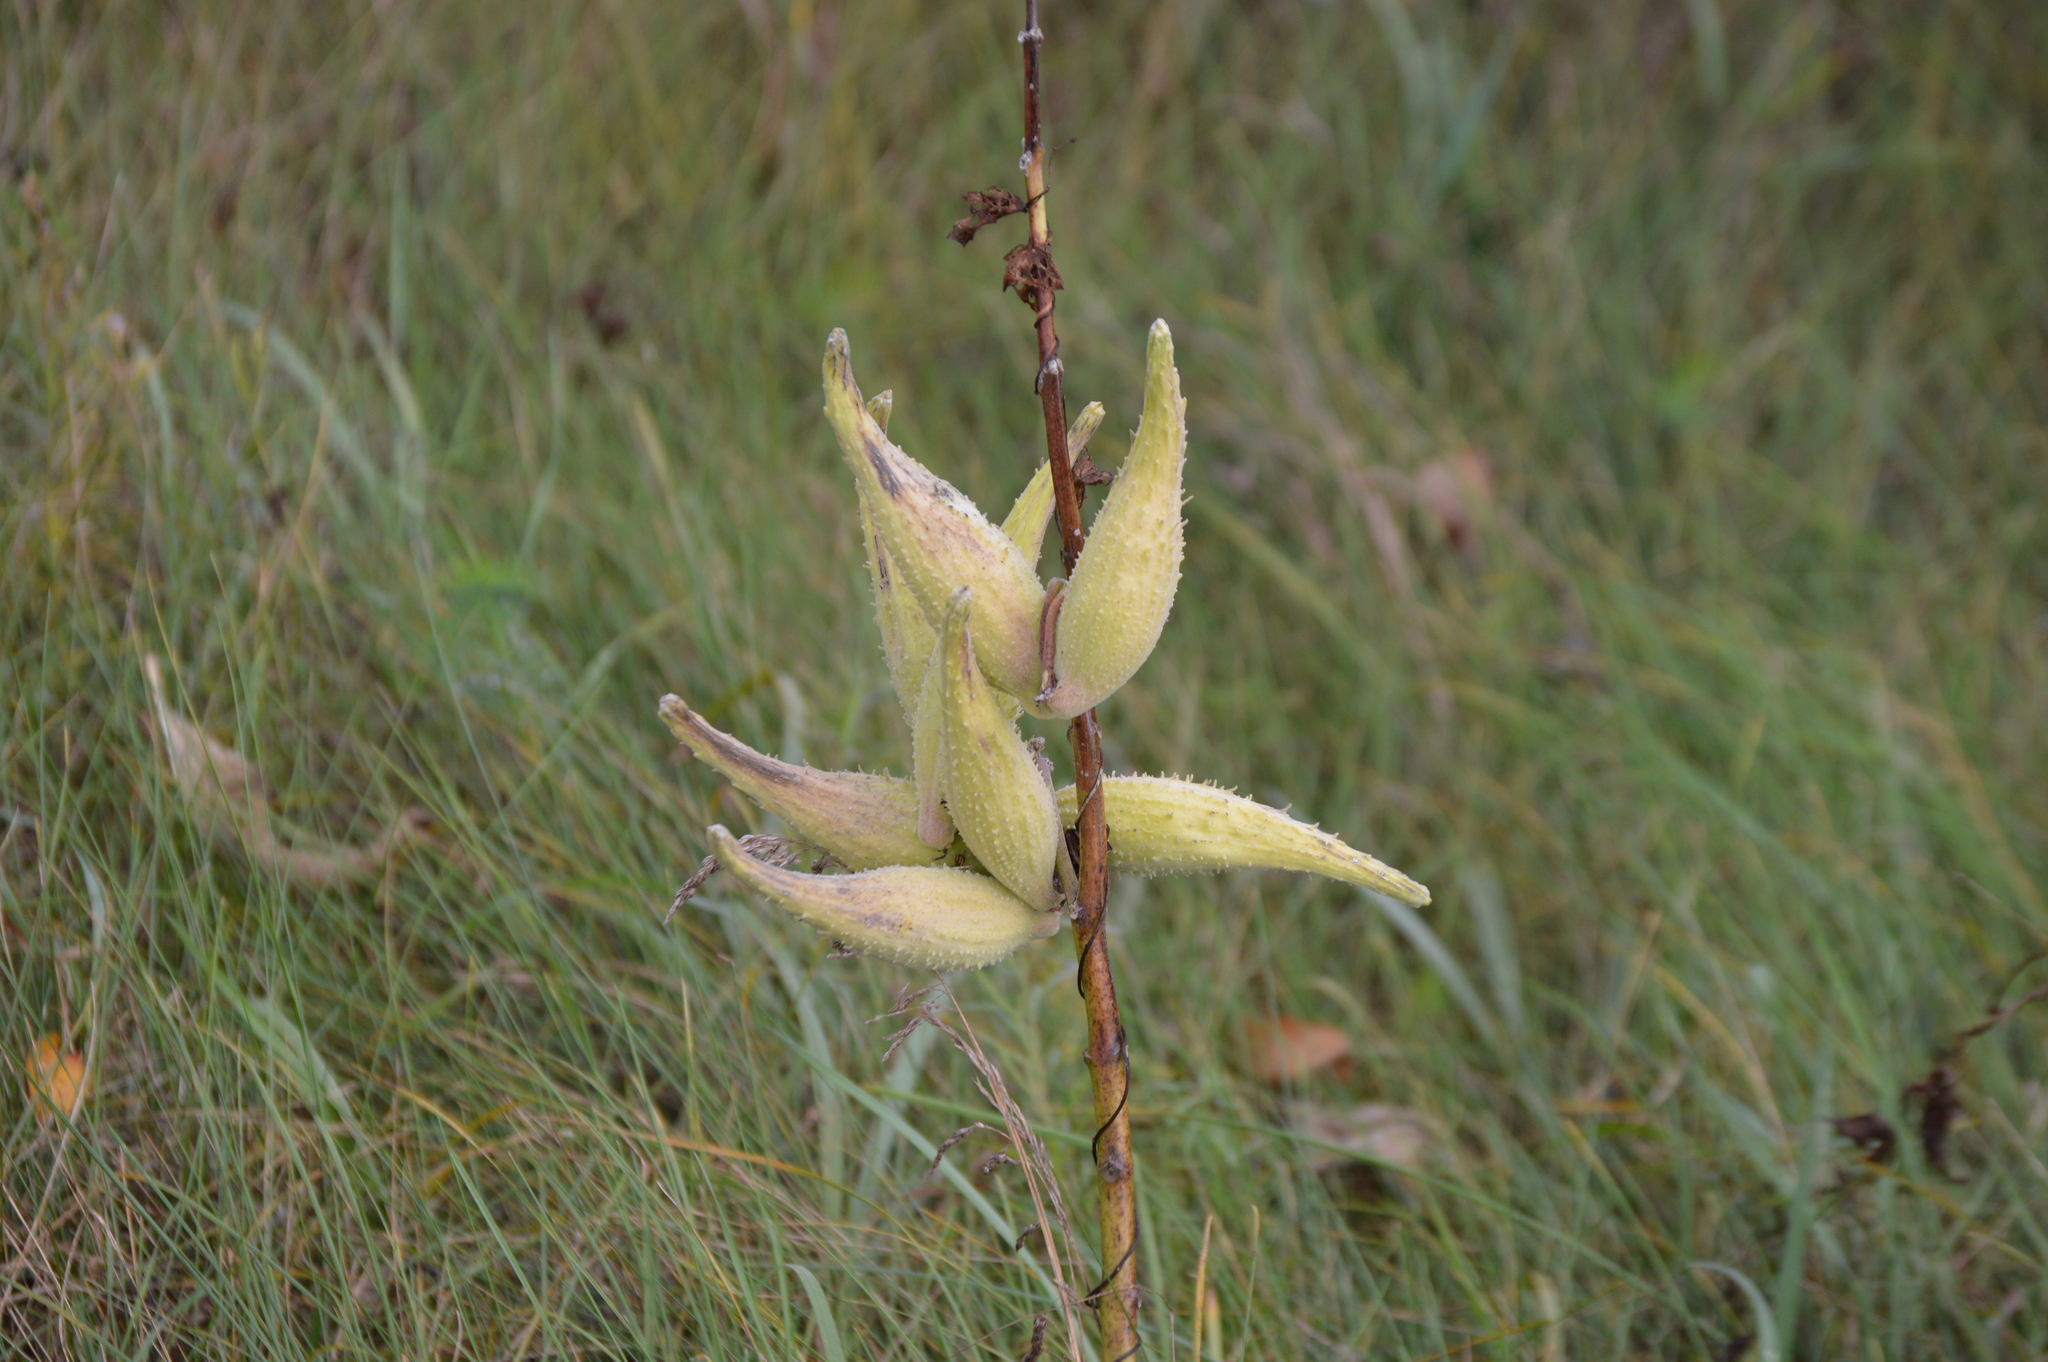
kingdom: Plantae
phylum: Tracheophyta
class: Magnoliopsida
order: Gentianales
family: Apocynaceae
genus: Asclepias
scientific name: Asclepias syriaca
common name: Common milkweed
